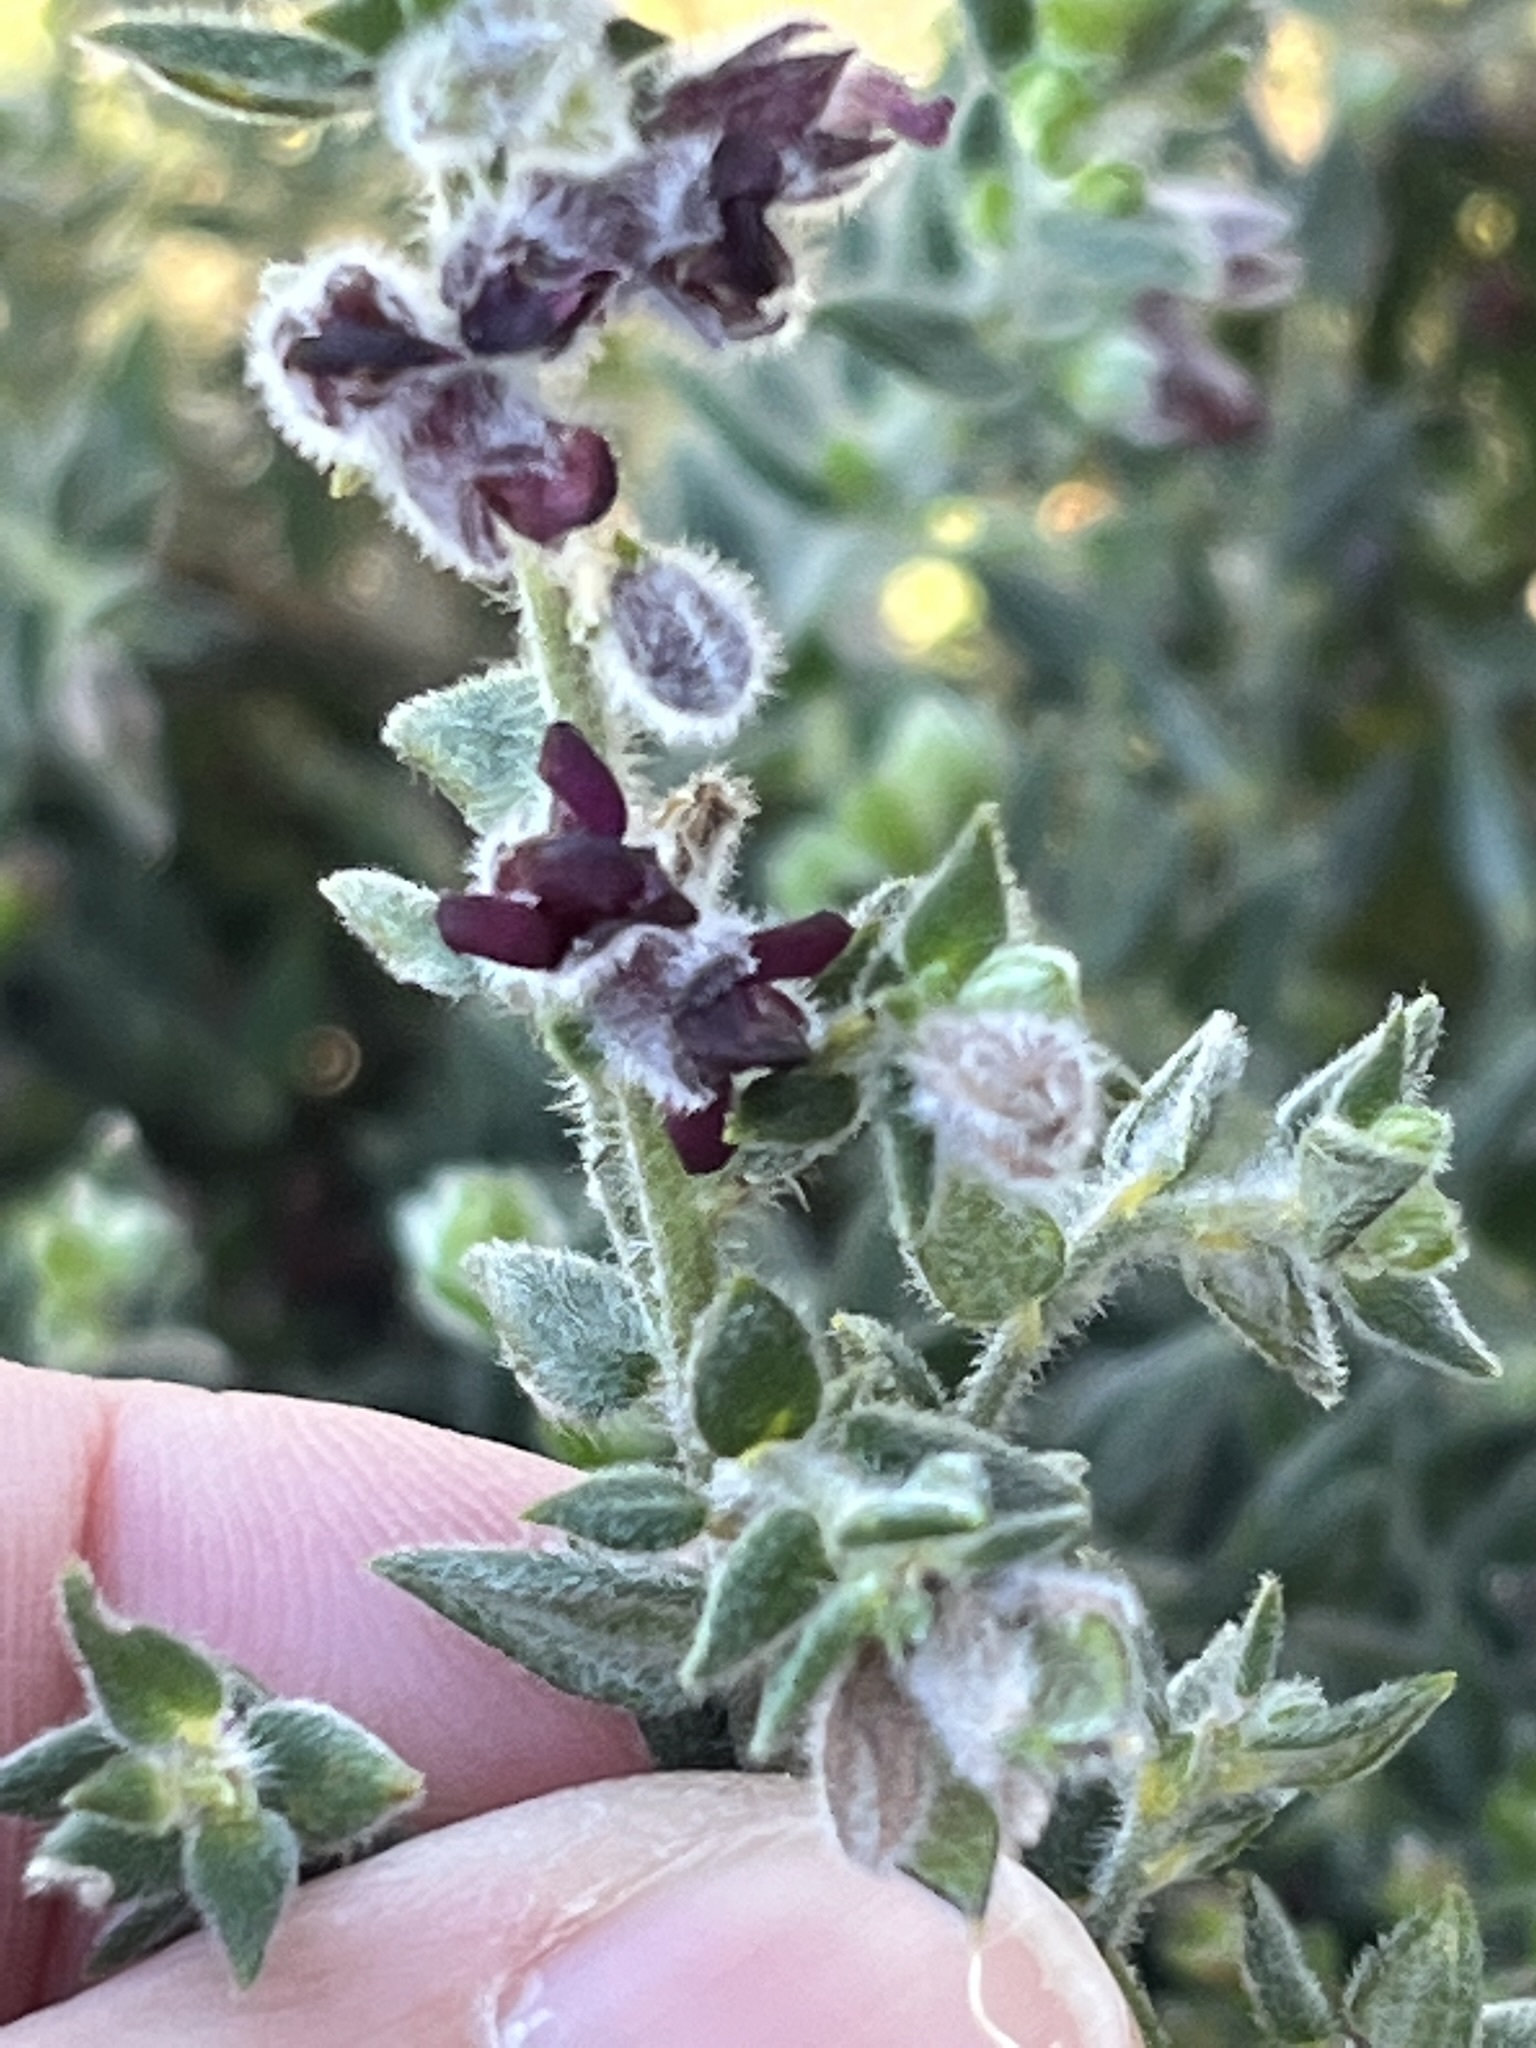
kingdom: Plantae
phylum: Tracheophyta
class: Magnoliopsida
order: Fabales
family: Fabaceae
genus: Amphithalea
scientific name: Amphithalea rostrata
